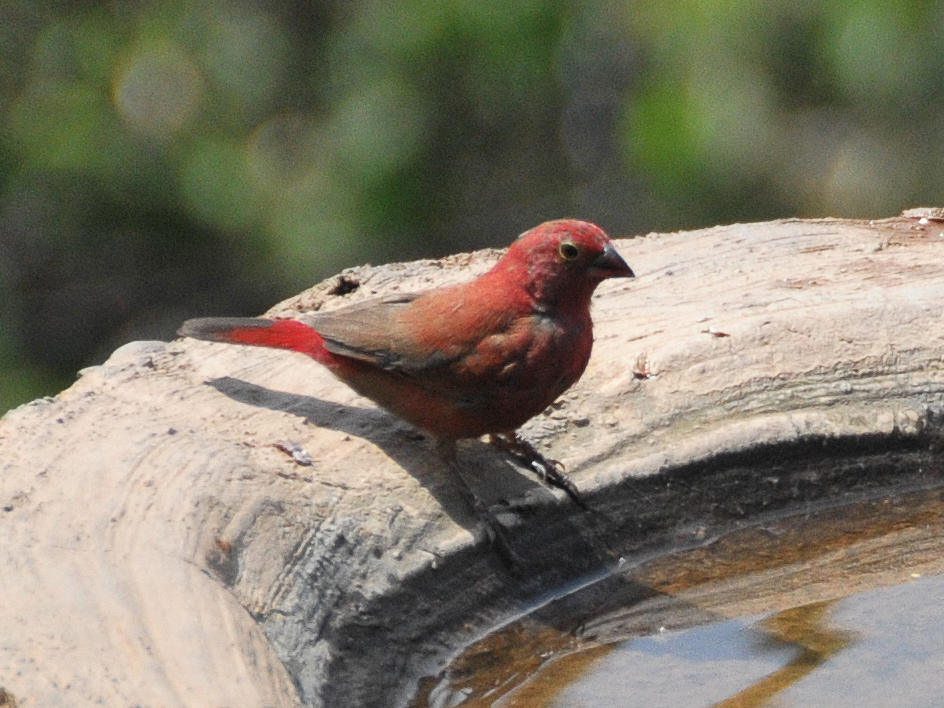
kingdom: Animalia
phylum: Chordata
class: Aves
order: Passeriformes
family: Estrildidae
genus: Lagonosticta
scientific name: Lagonosticta senegala
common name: Red-billed firefinch
